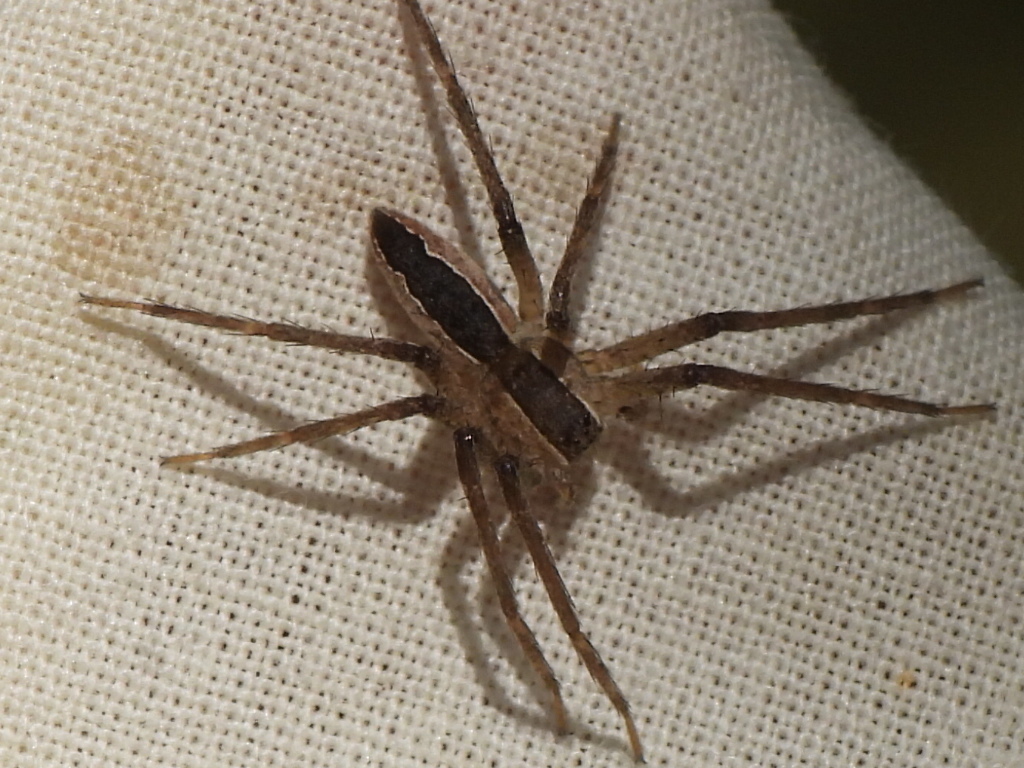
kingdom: Animalia
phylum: Arthropoda
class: Arachnida
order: Araneae
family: Pisauridae
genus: Pisaurina
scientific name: Pisaurina mira
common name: American nursery web spider
